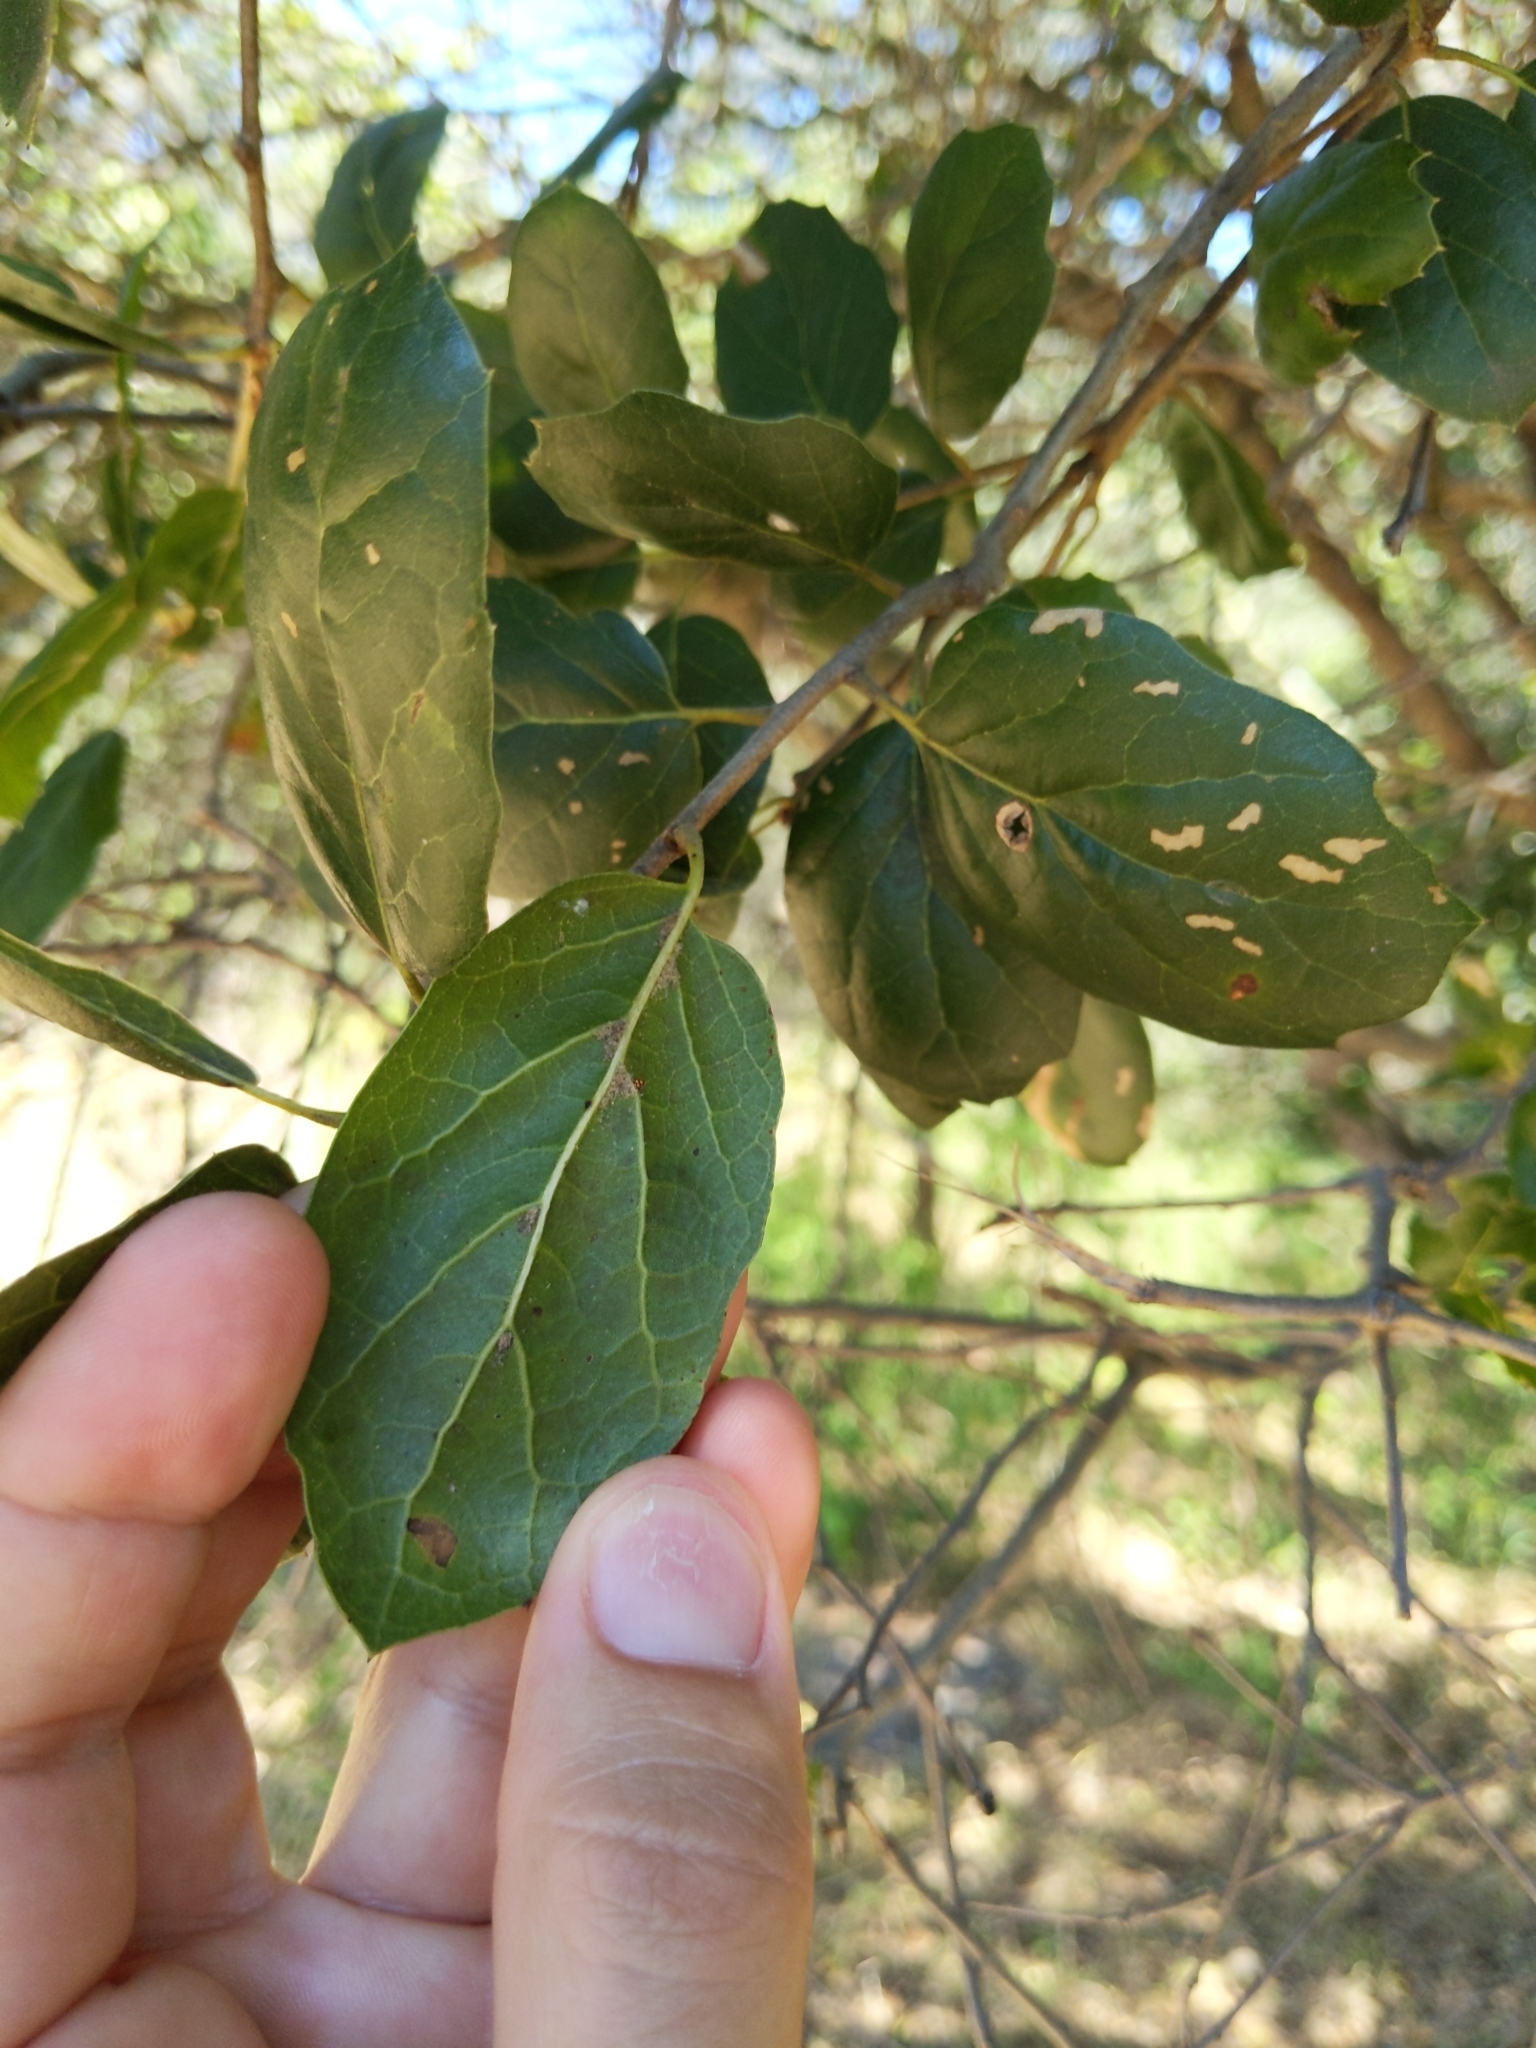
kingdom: Plantae
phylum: Tracheophyta
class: Magnoliopsida
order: Fagales
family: Fagaceae
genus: Quercus
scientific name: Quercus agrifolia
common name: California live oak
